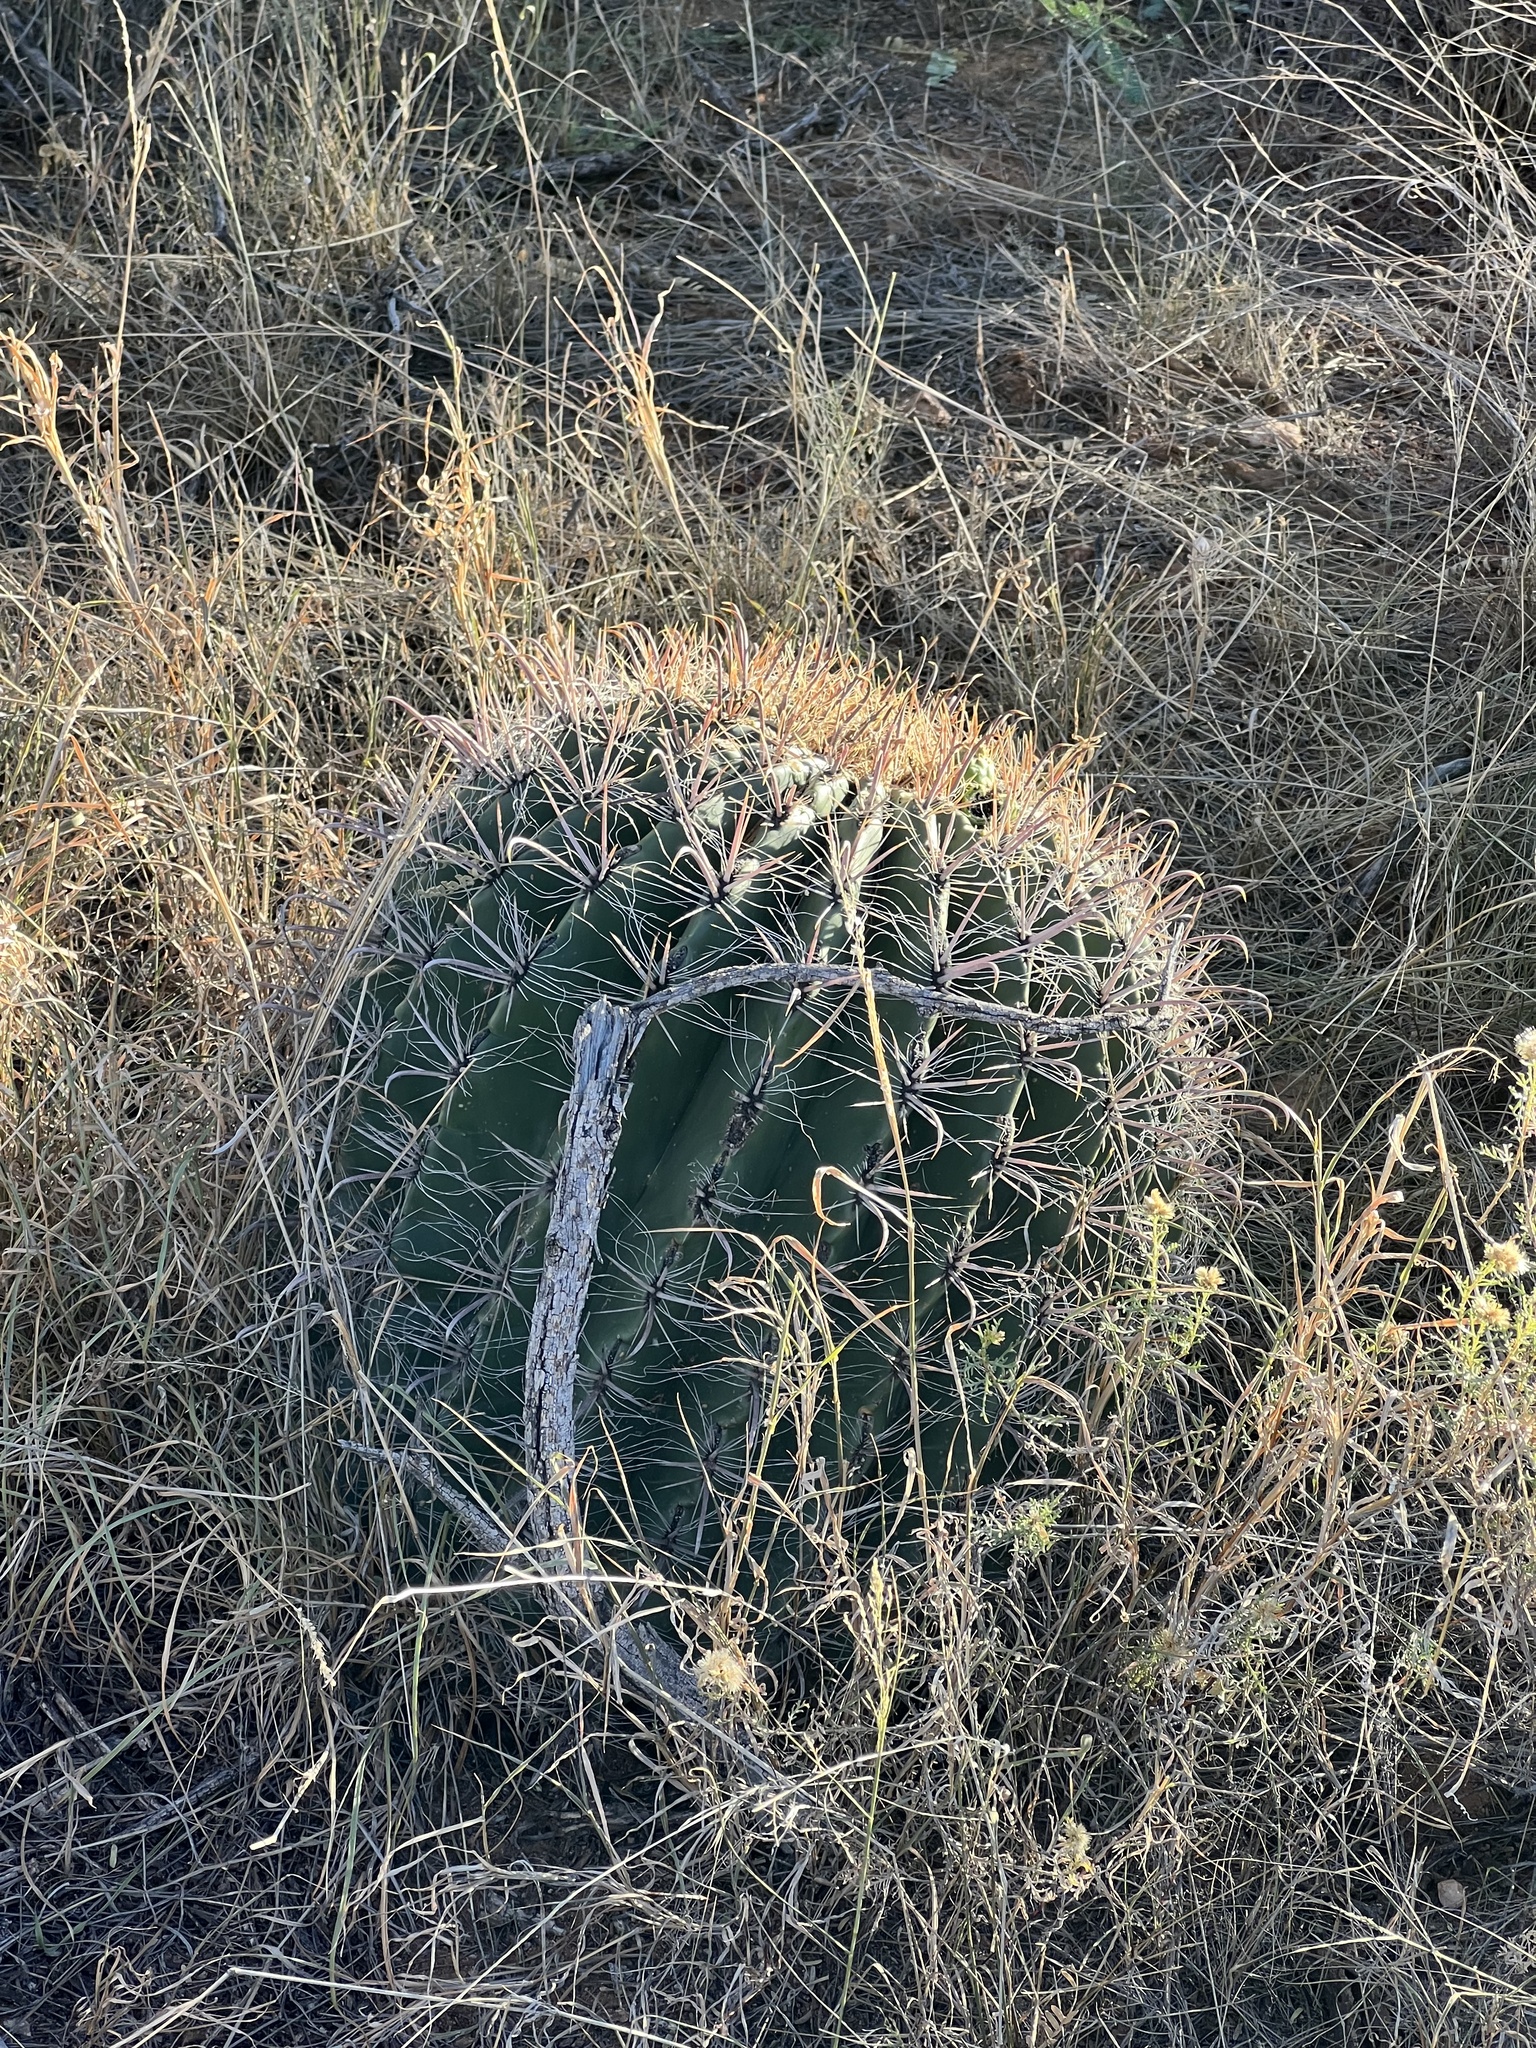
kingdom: Plantae
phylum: Tracheophyta
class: Magnoliopsida
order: Caryophyllales
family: Cactaceae
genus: Ferocactus
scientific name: Ferocactus wislizeni
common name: Candy barrel cactus
